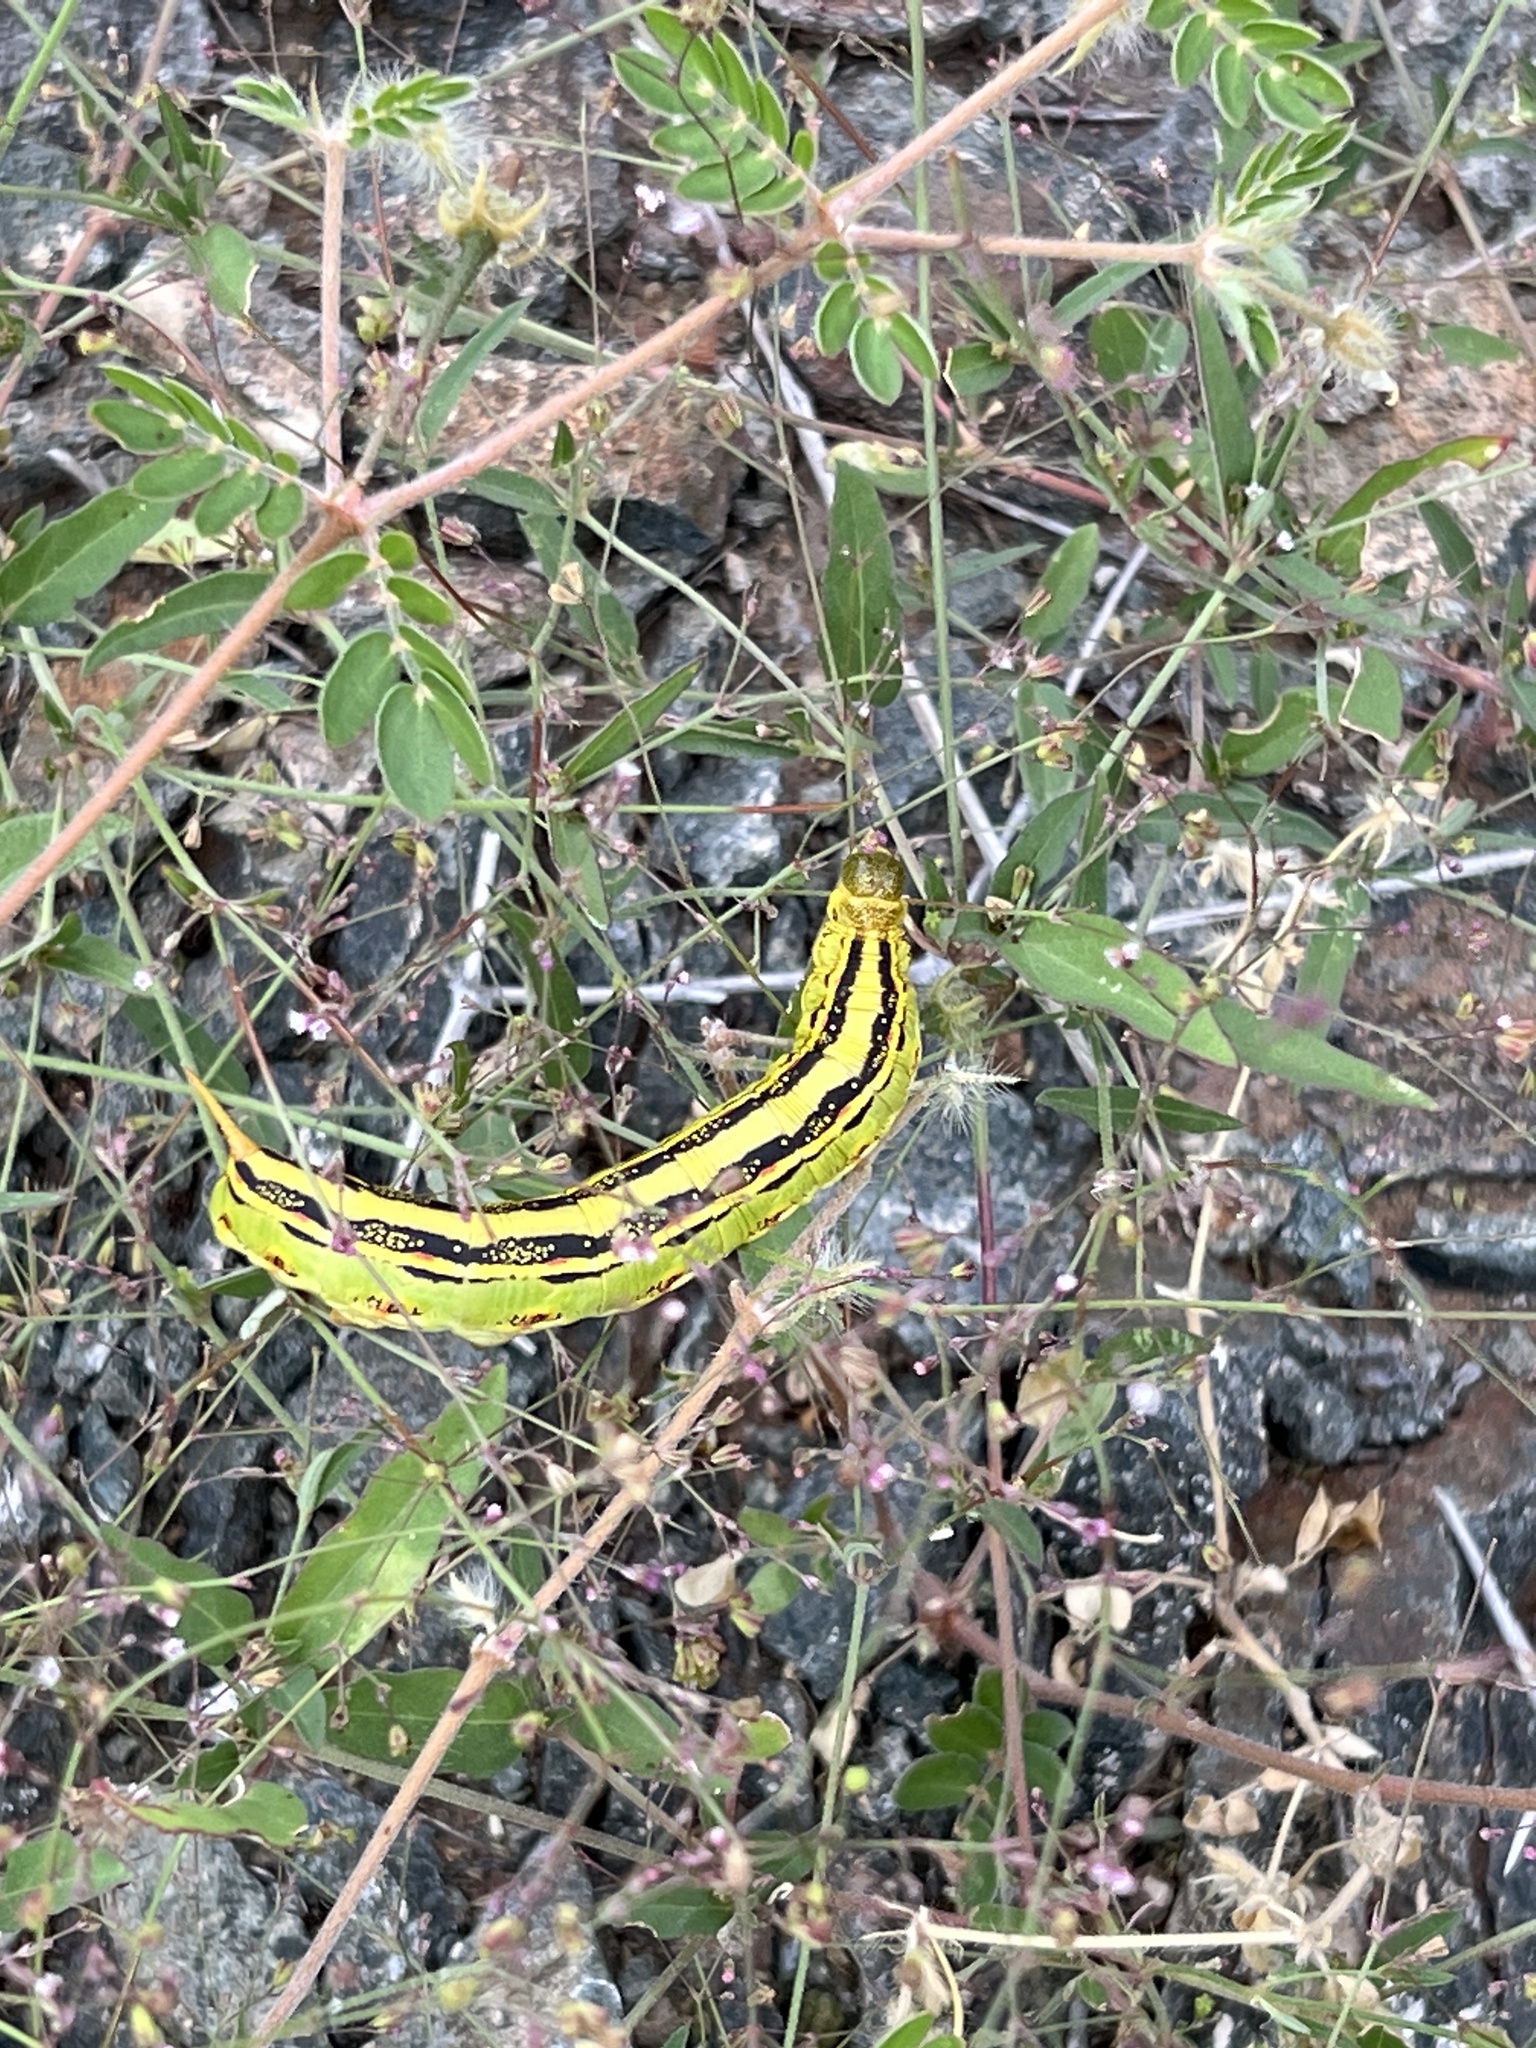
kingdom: Animalia
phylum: Arthropoda
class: Insecta
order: Lepidoptera
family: Sphingidae
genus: Hyles
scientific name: Hyles lineata
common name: White-lined sphinx
